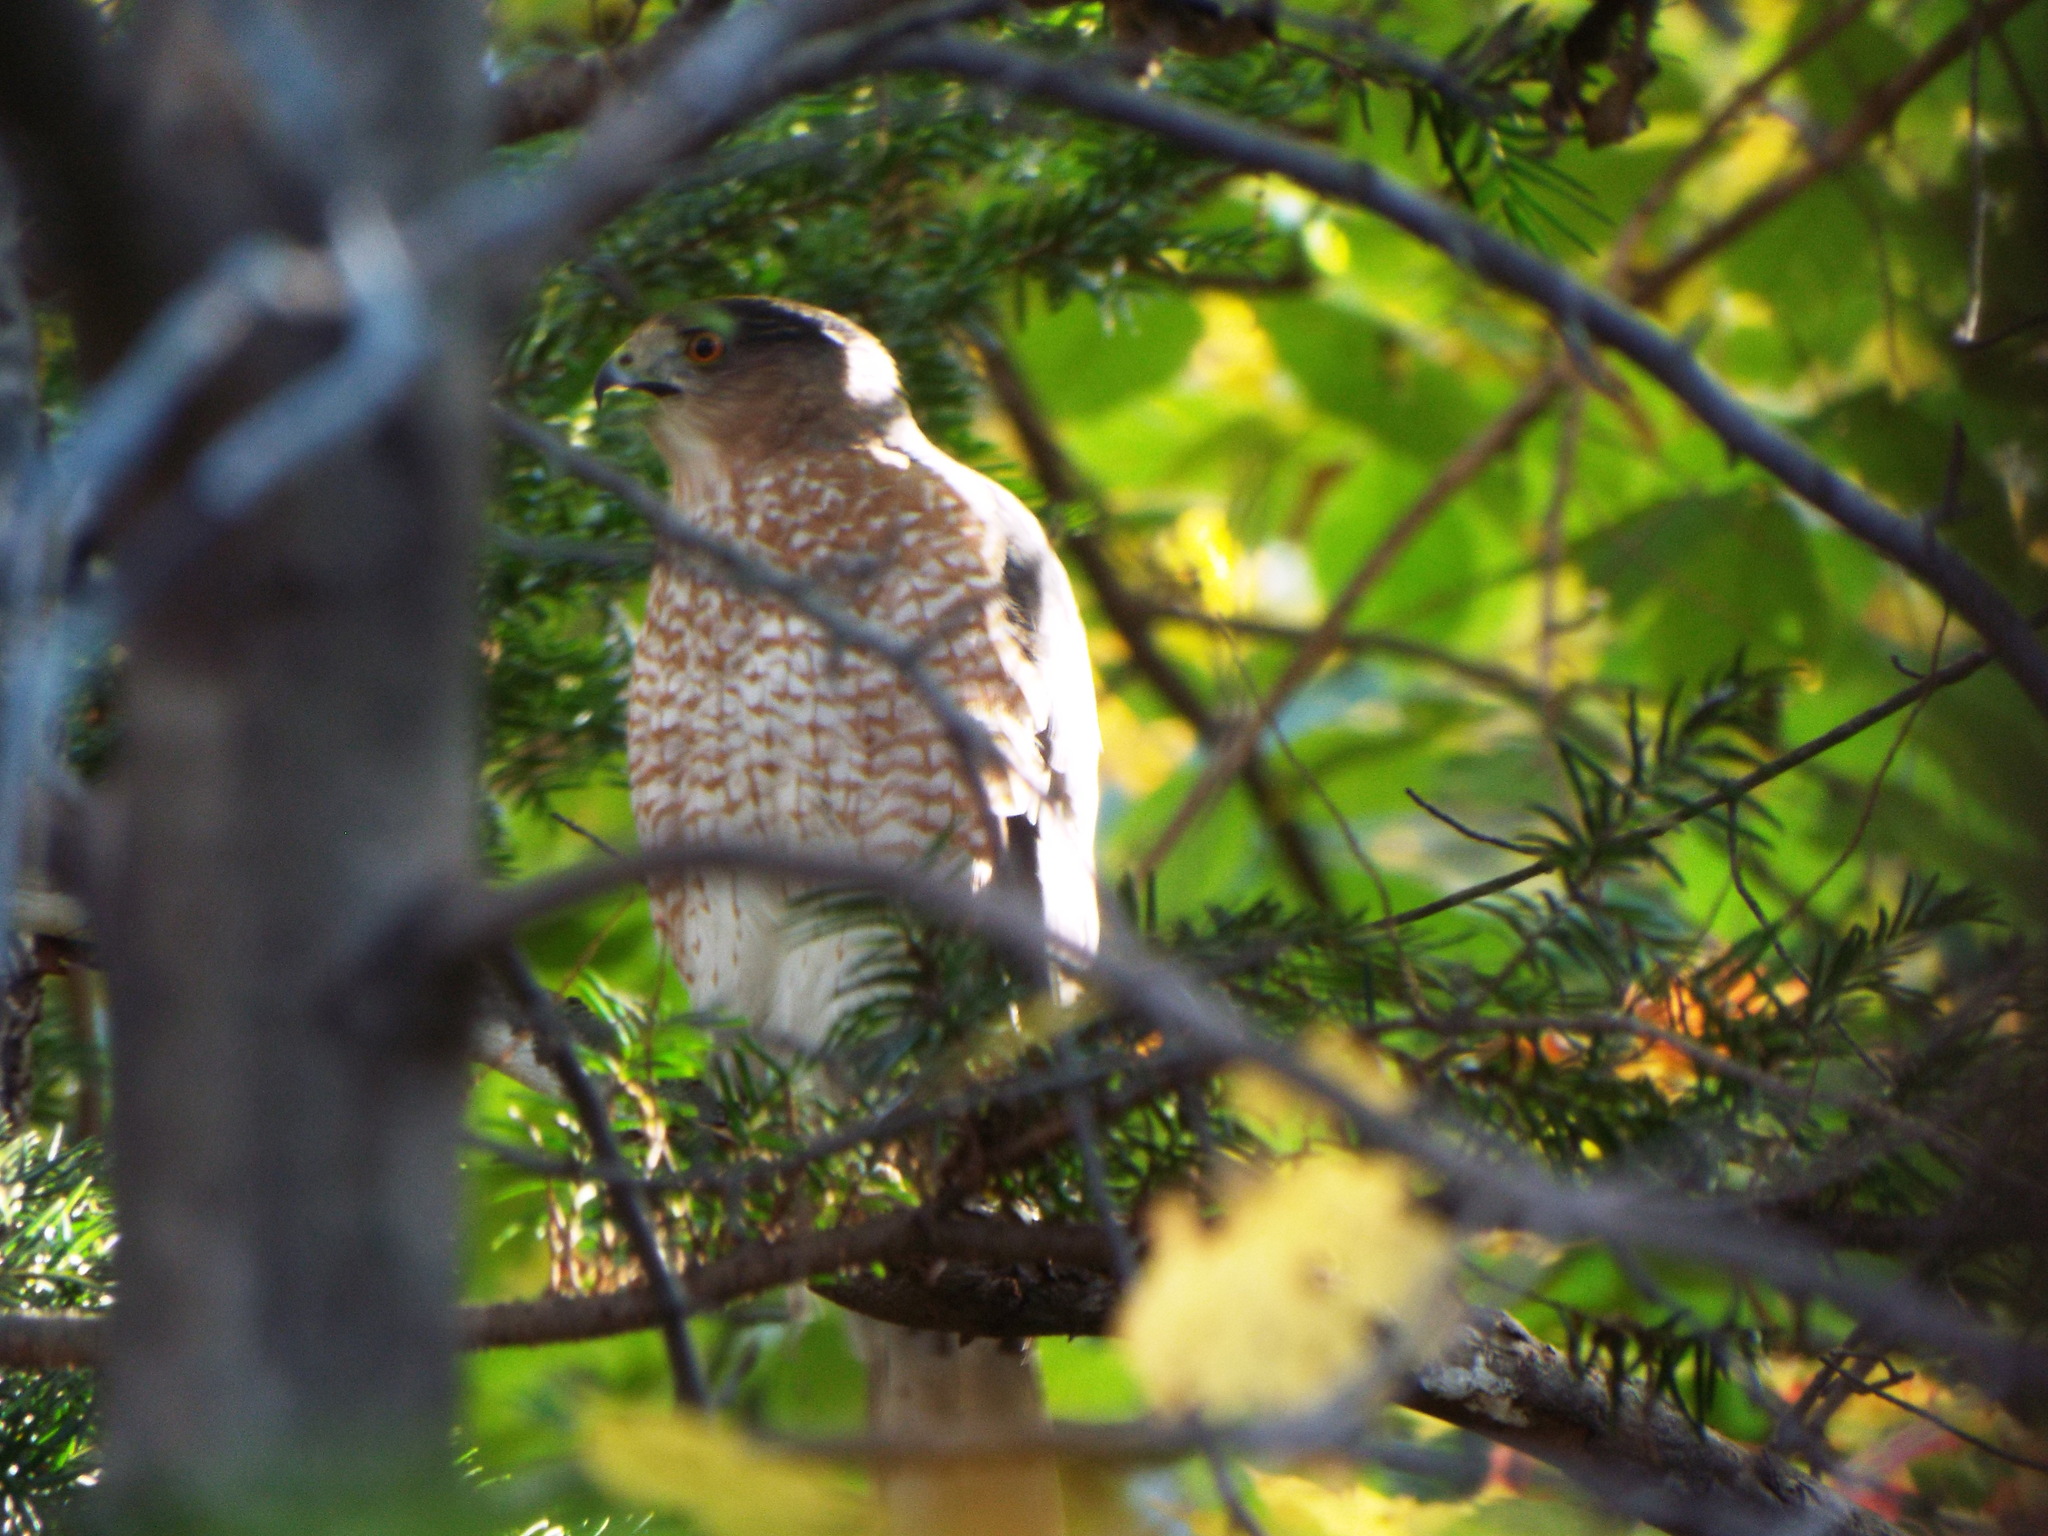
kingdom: Animalia
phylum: Chordata
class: Aves
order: Accipitriformes
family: Accipitridae
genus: Accipiter
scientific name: Accipiter cooperii
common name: Cooper's hawk
